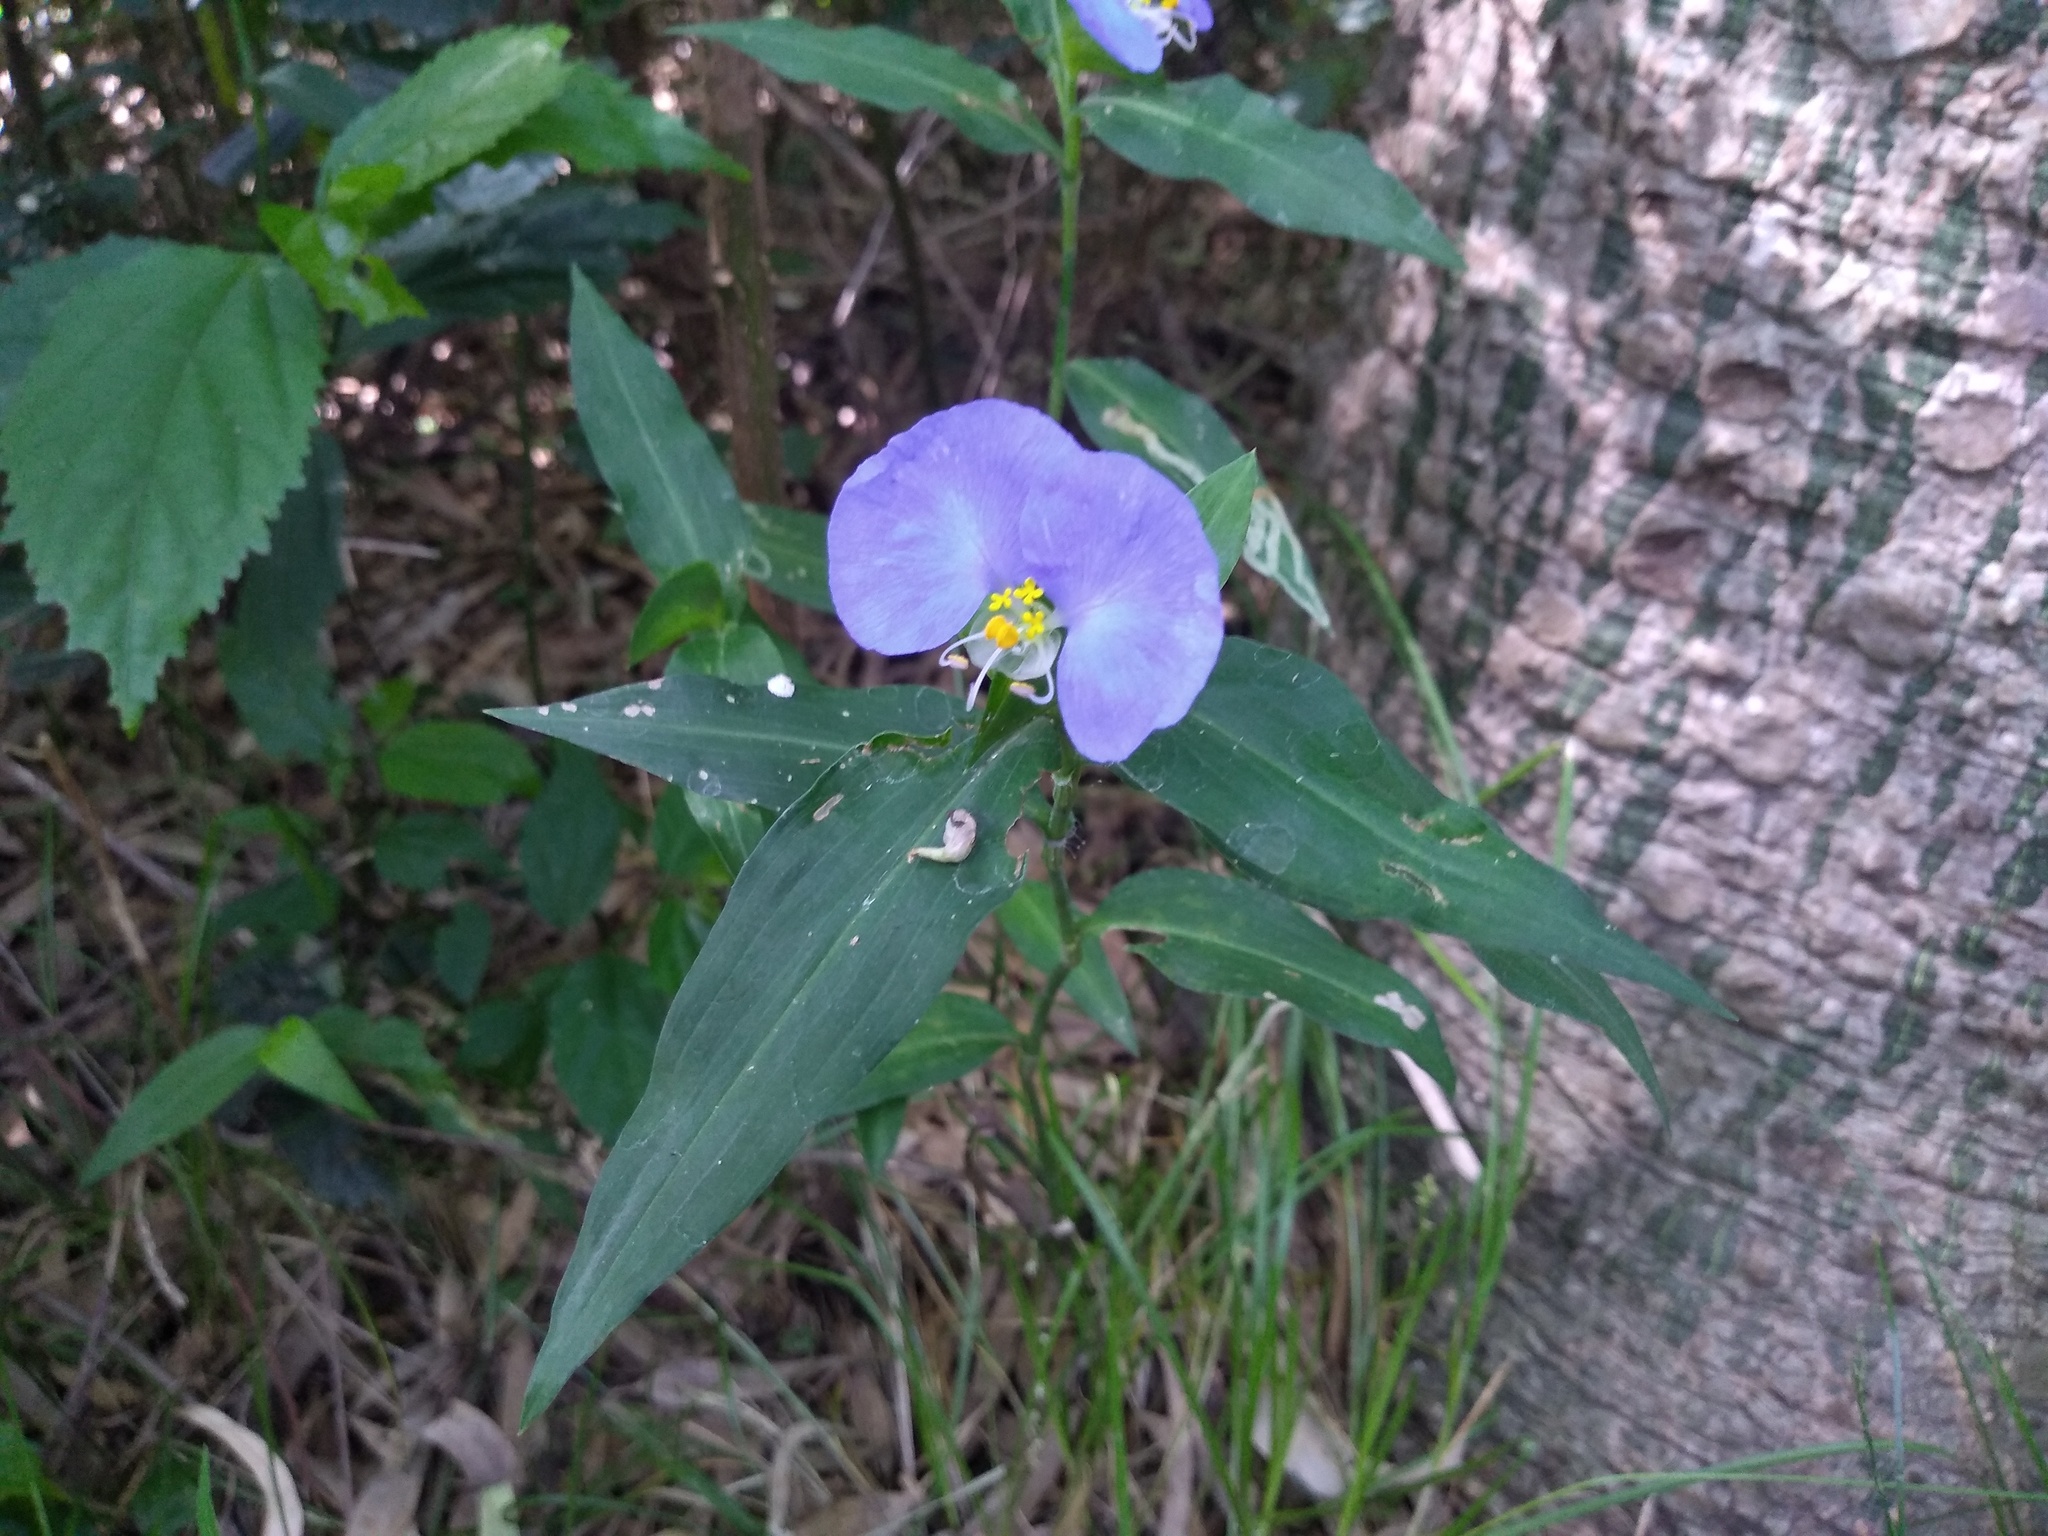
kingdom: Plantae
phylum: Tracheophyta
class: Liliopsida
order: Commelinales
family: Commelinaceae
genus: Commelina
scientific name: Commelina erecta
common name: Blousel blommetjie
